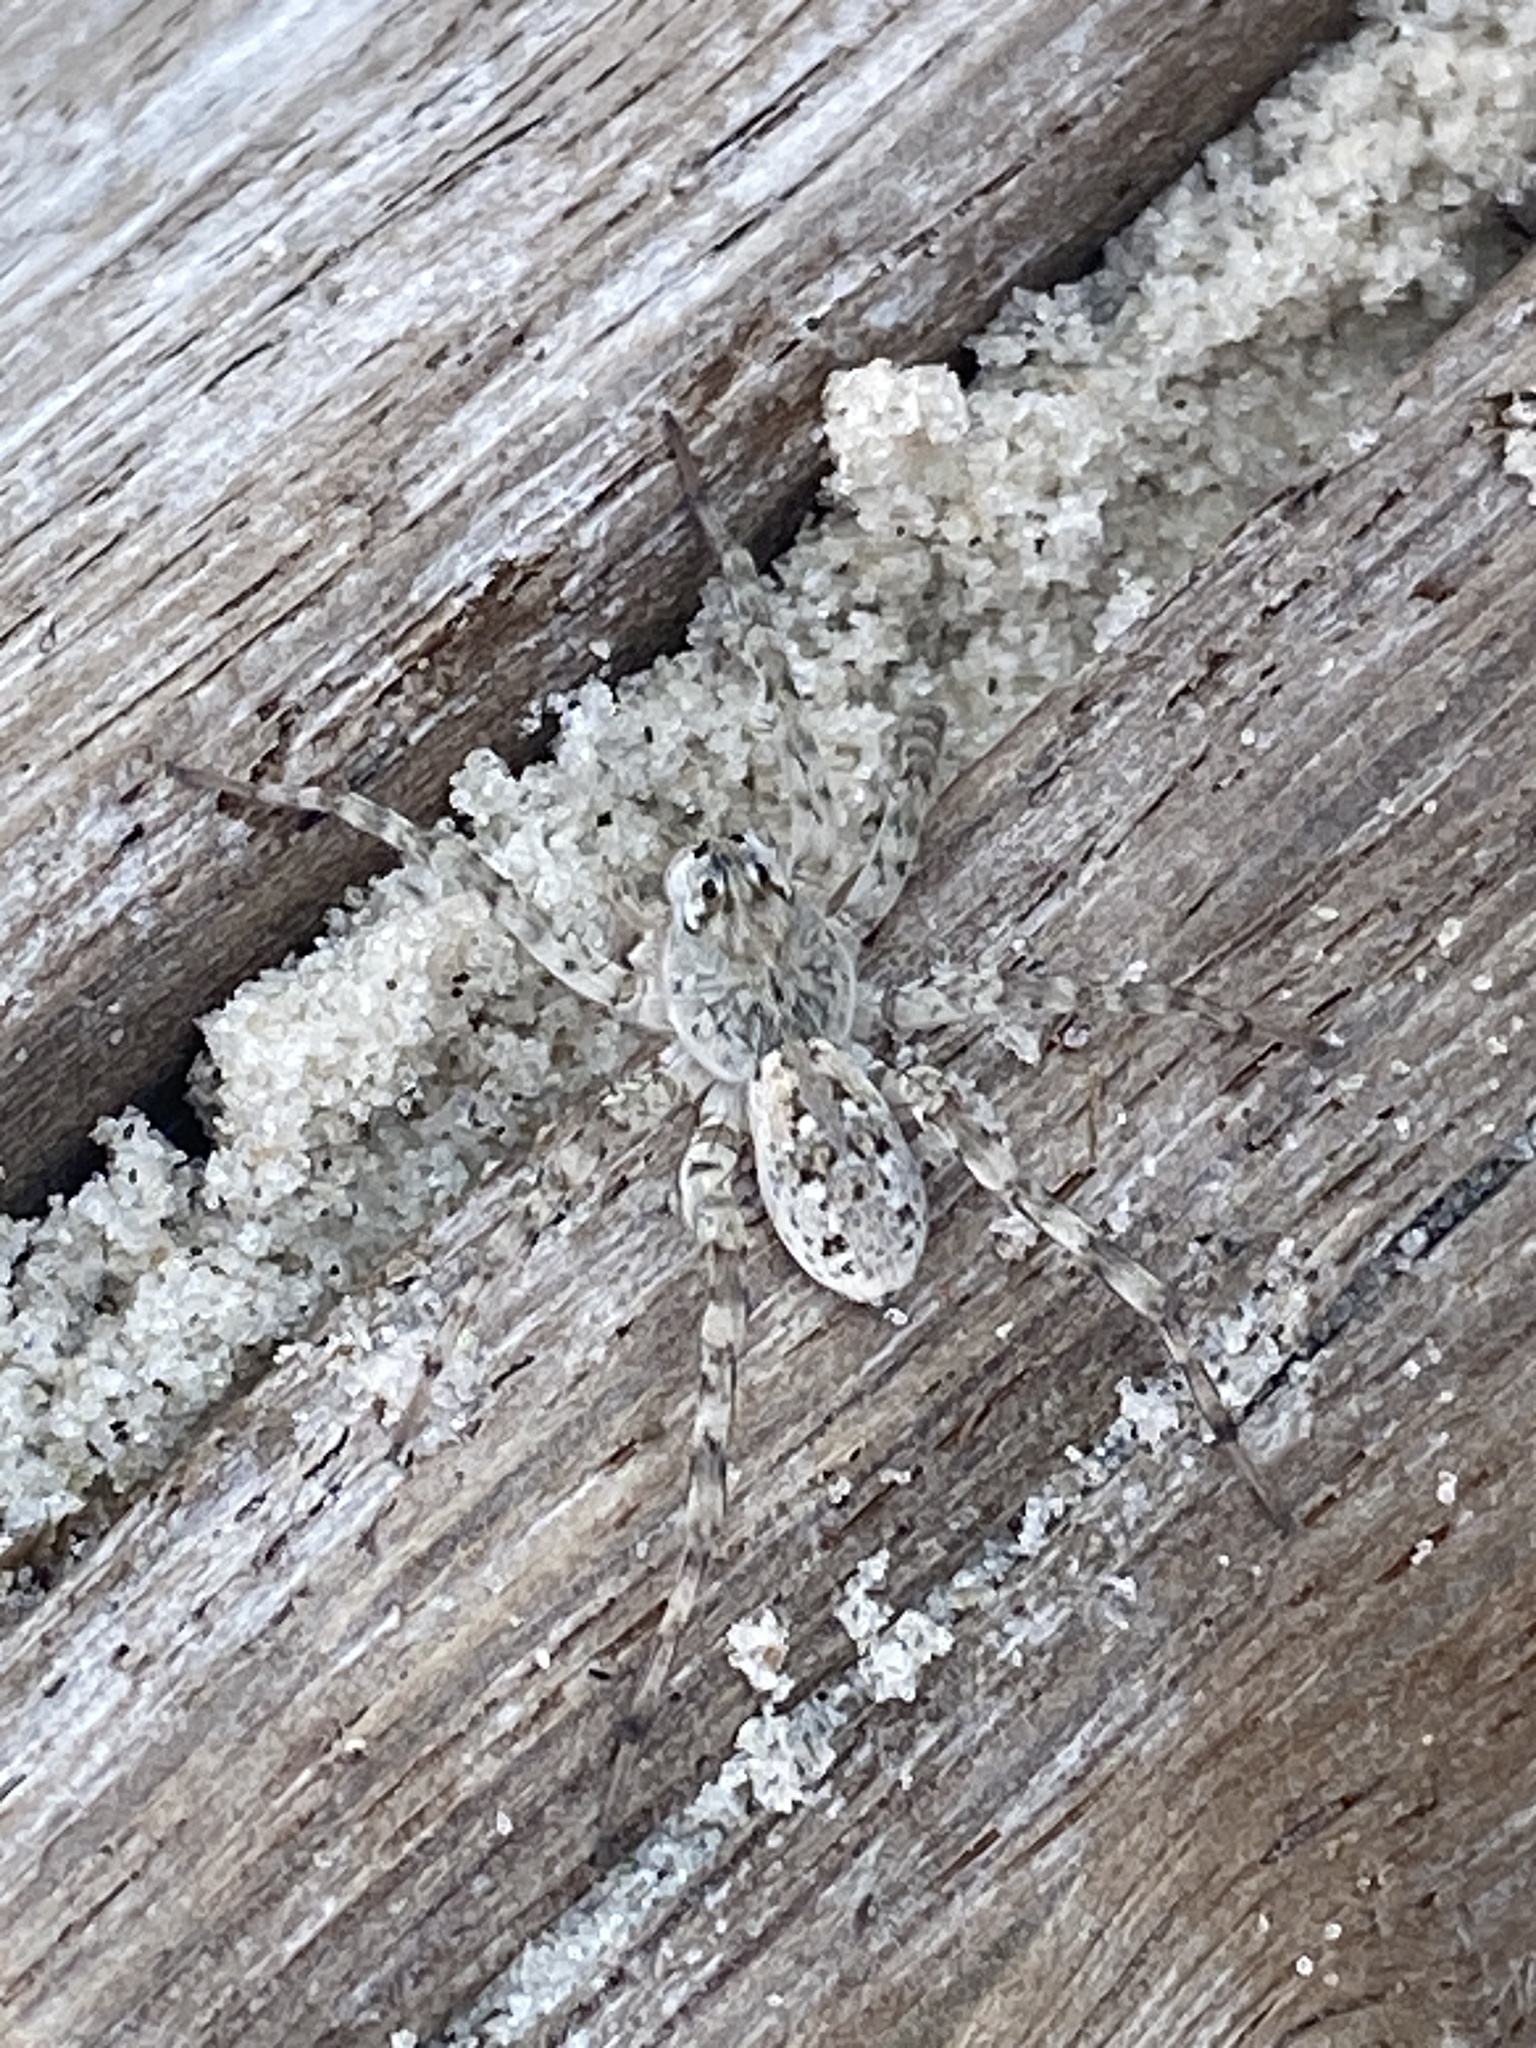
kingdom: Animalia
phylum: Arthropoda
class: Arachnida
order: Araneae
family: Lycosidae
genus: Arctosa
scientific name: Arctosa littoralis
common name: Wolf spiders
